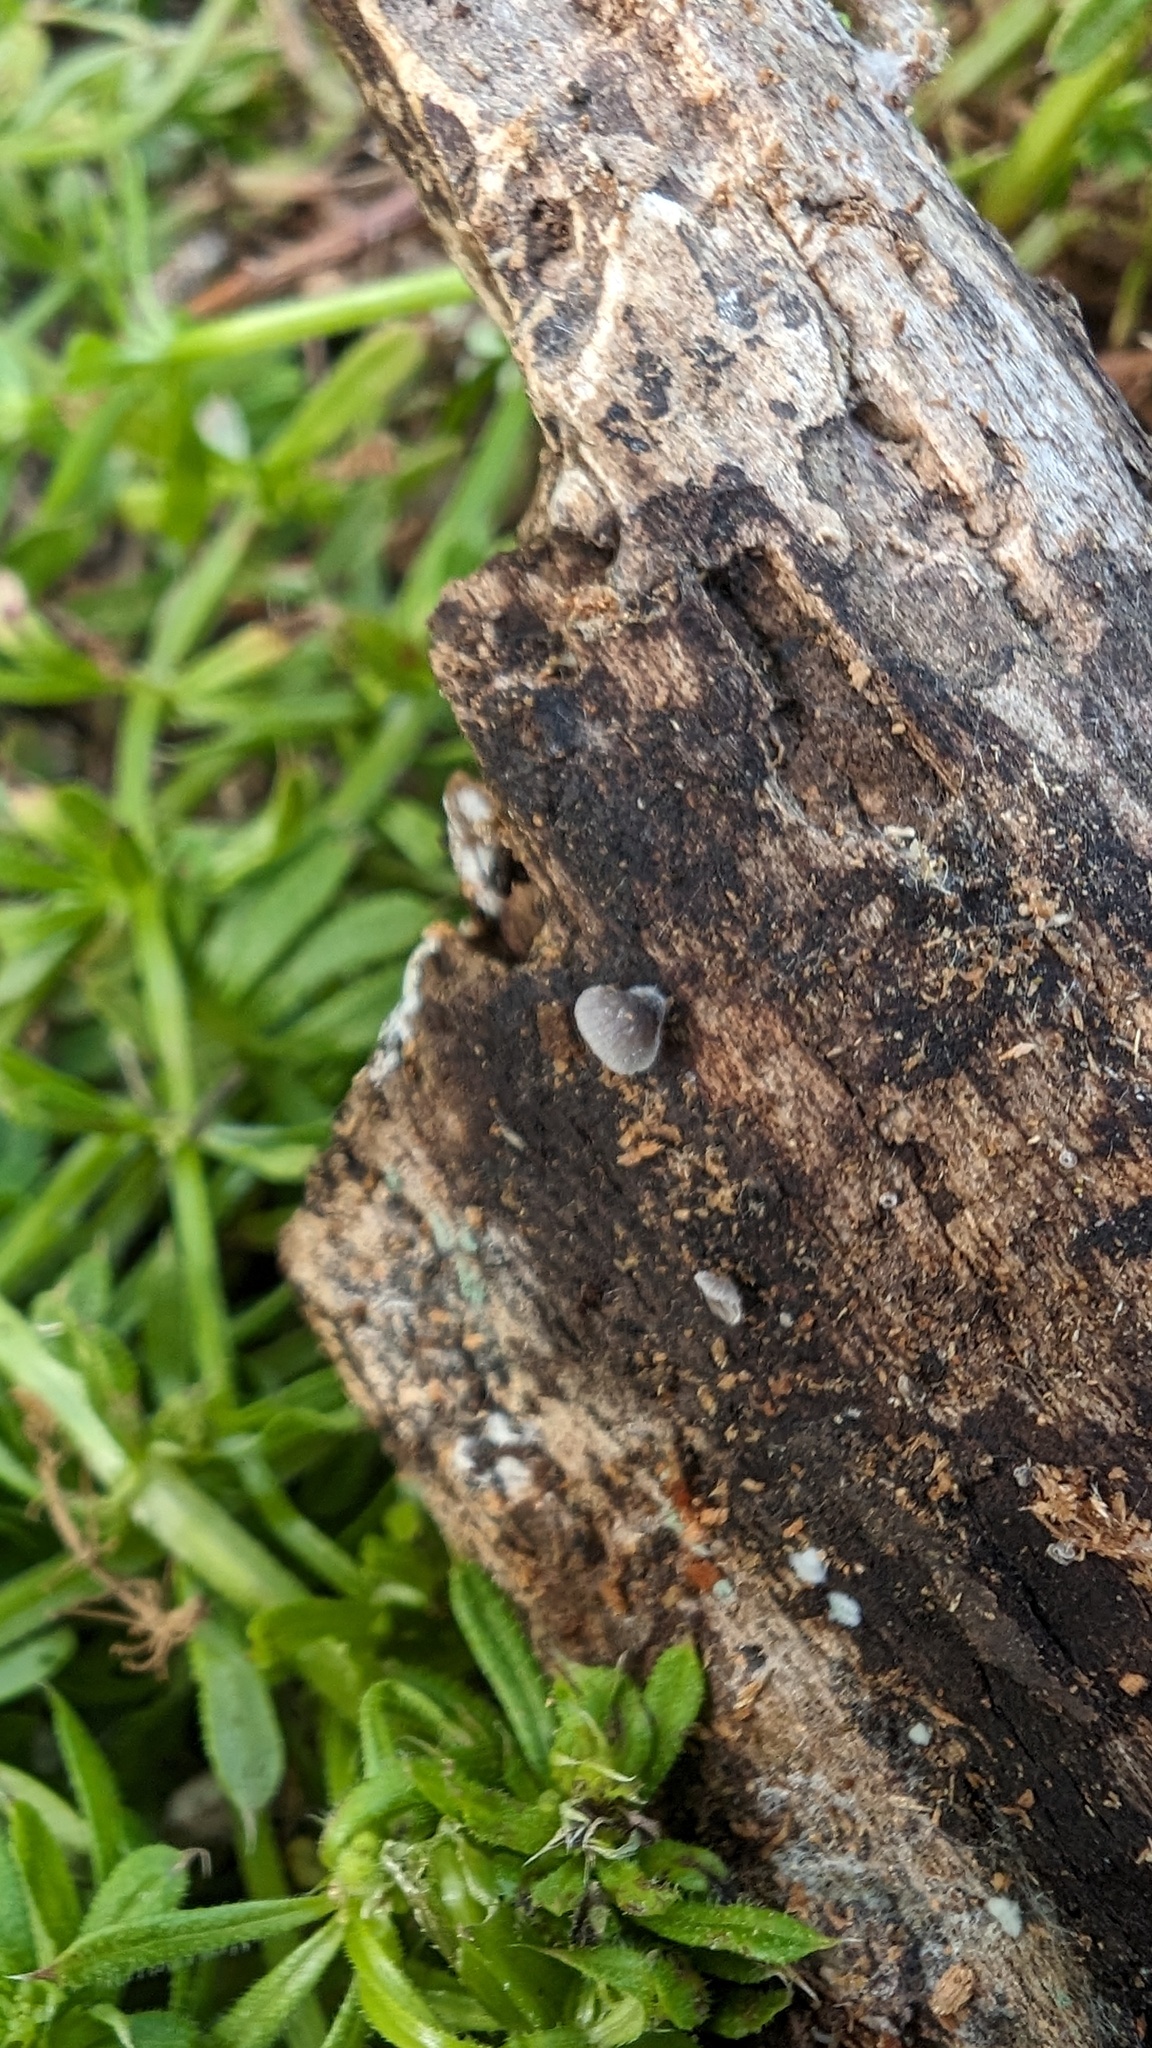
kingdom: Fungi
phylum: Basidiomycota
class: Agaricomycetes
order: Agaricales
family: Pleurotaceae
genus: Resupinatus
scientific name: Resupinatus applicatus
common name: Smoked oysterling
